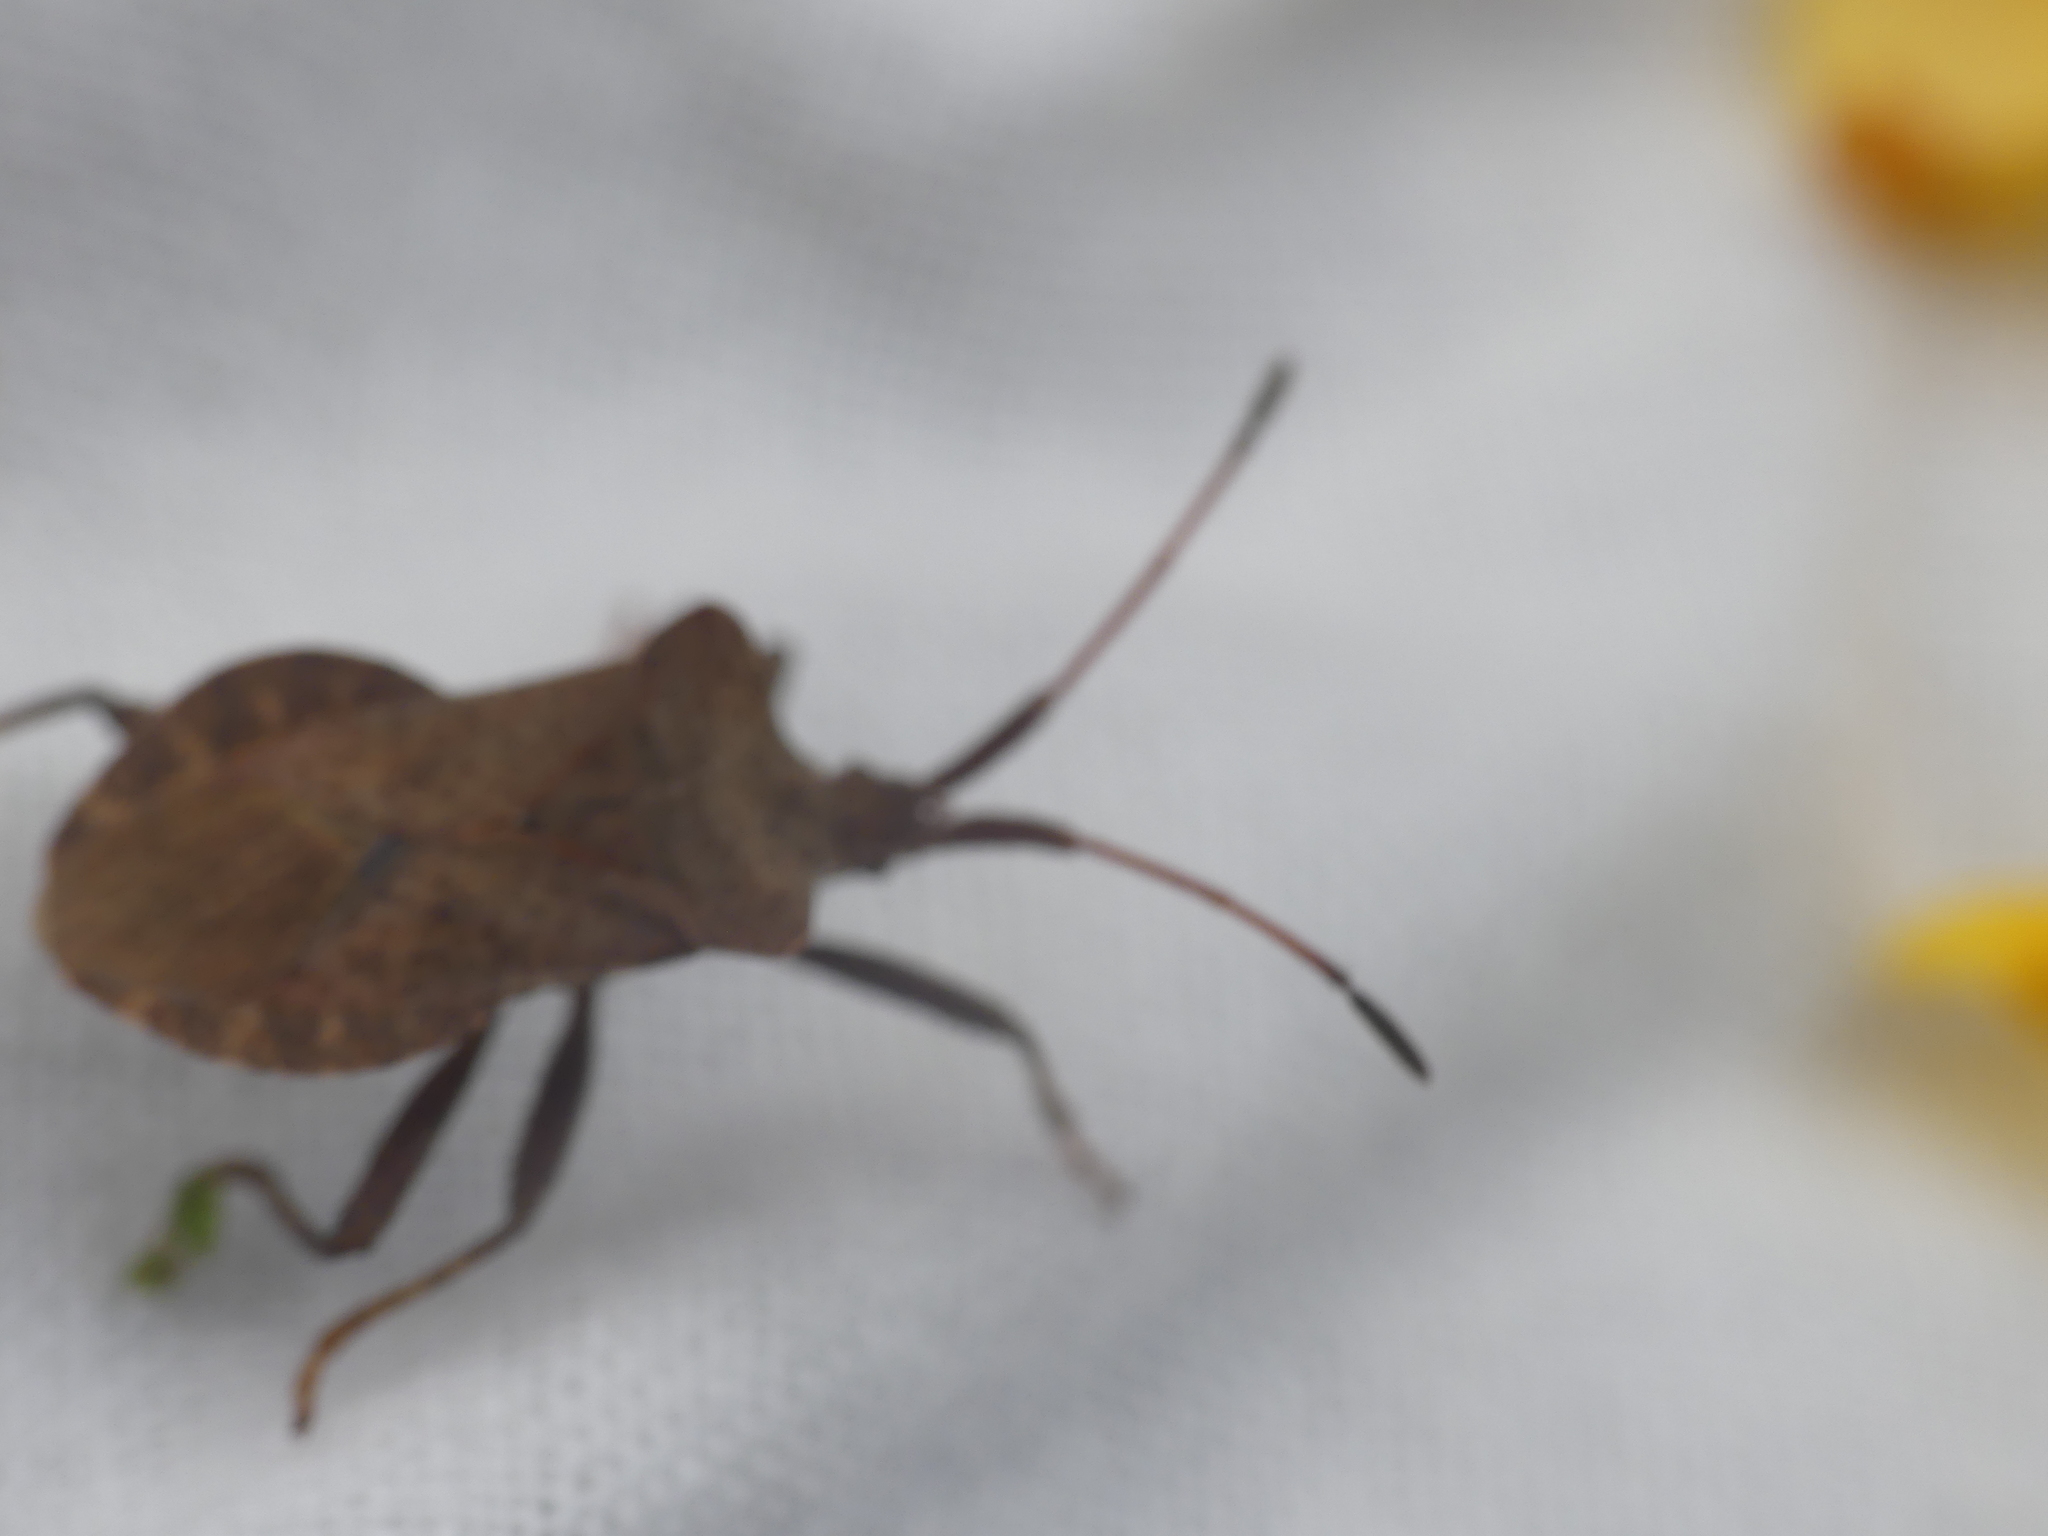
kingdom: Animalia
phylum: Arthropoda
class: Insecta
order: Hemiptera
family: Coreidae
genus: Coreus
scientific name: Coreus marginatus
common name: Dock bug
